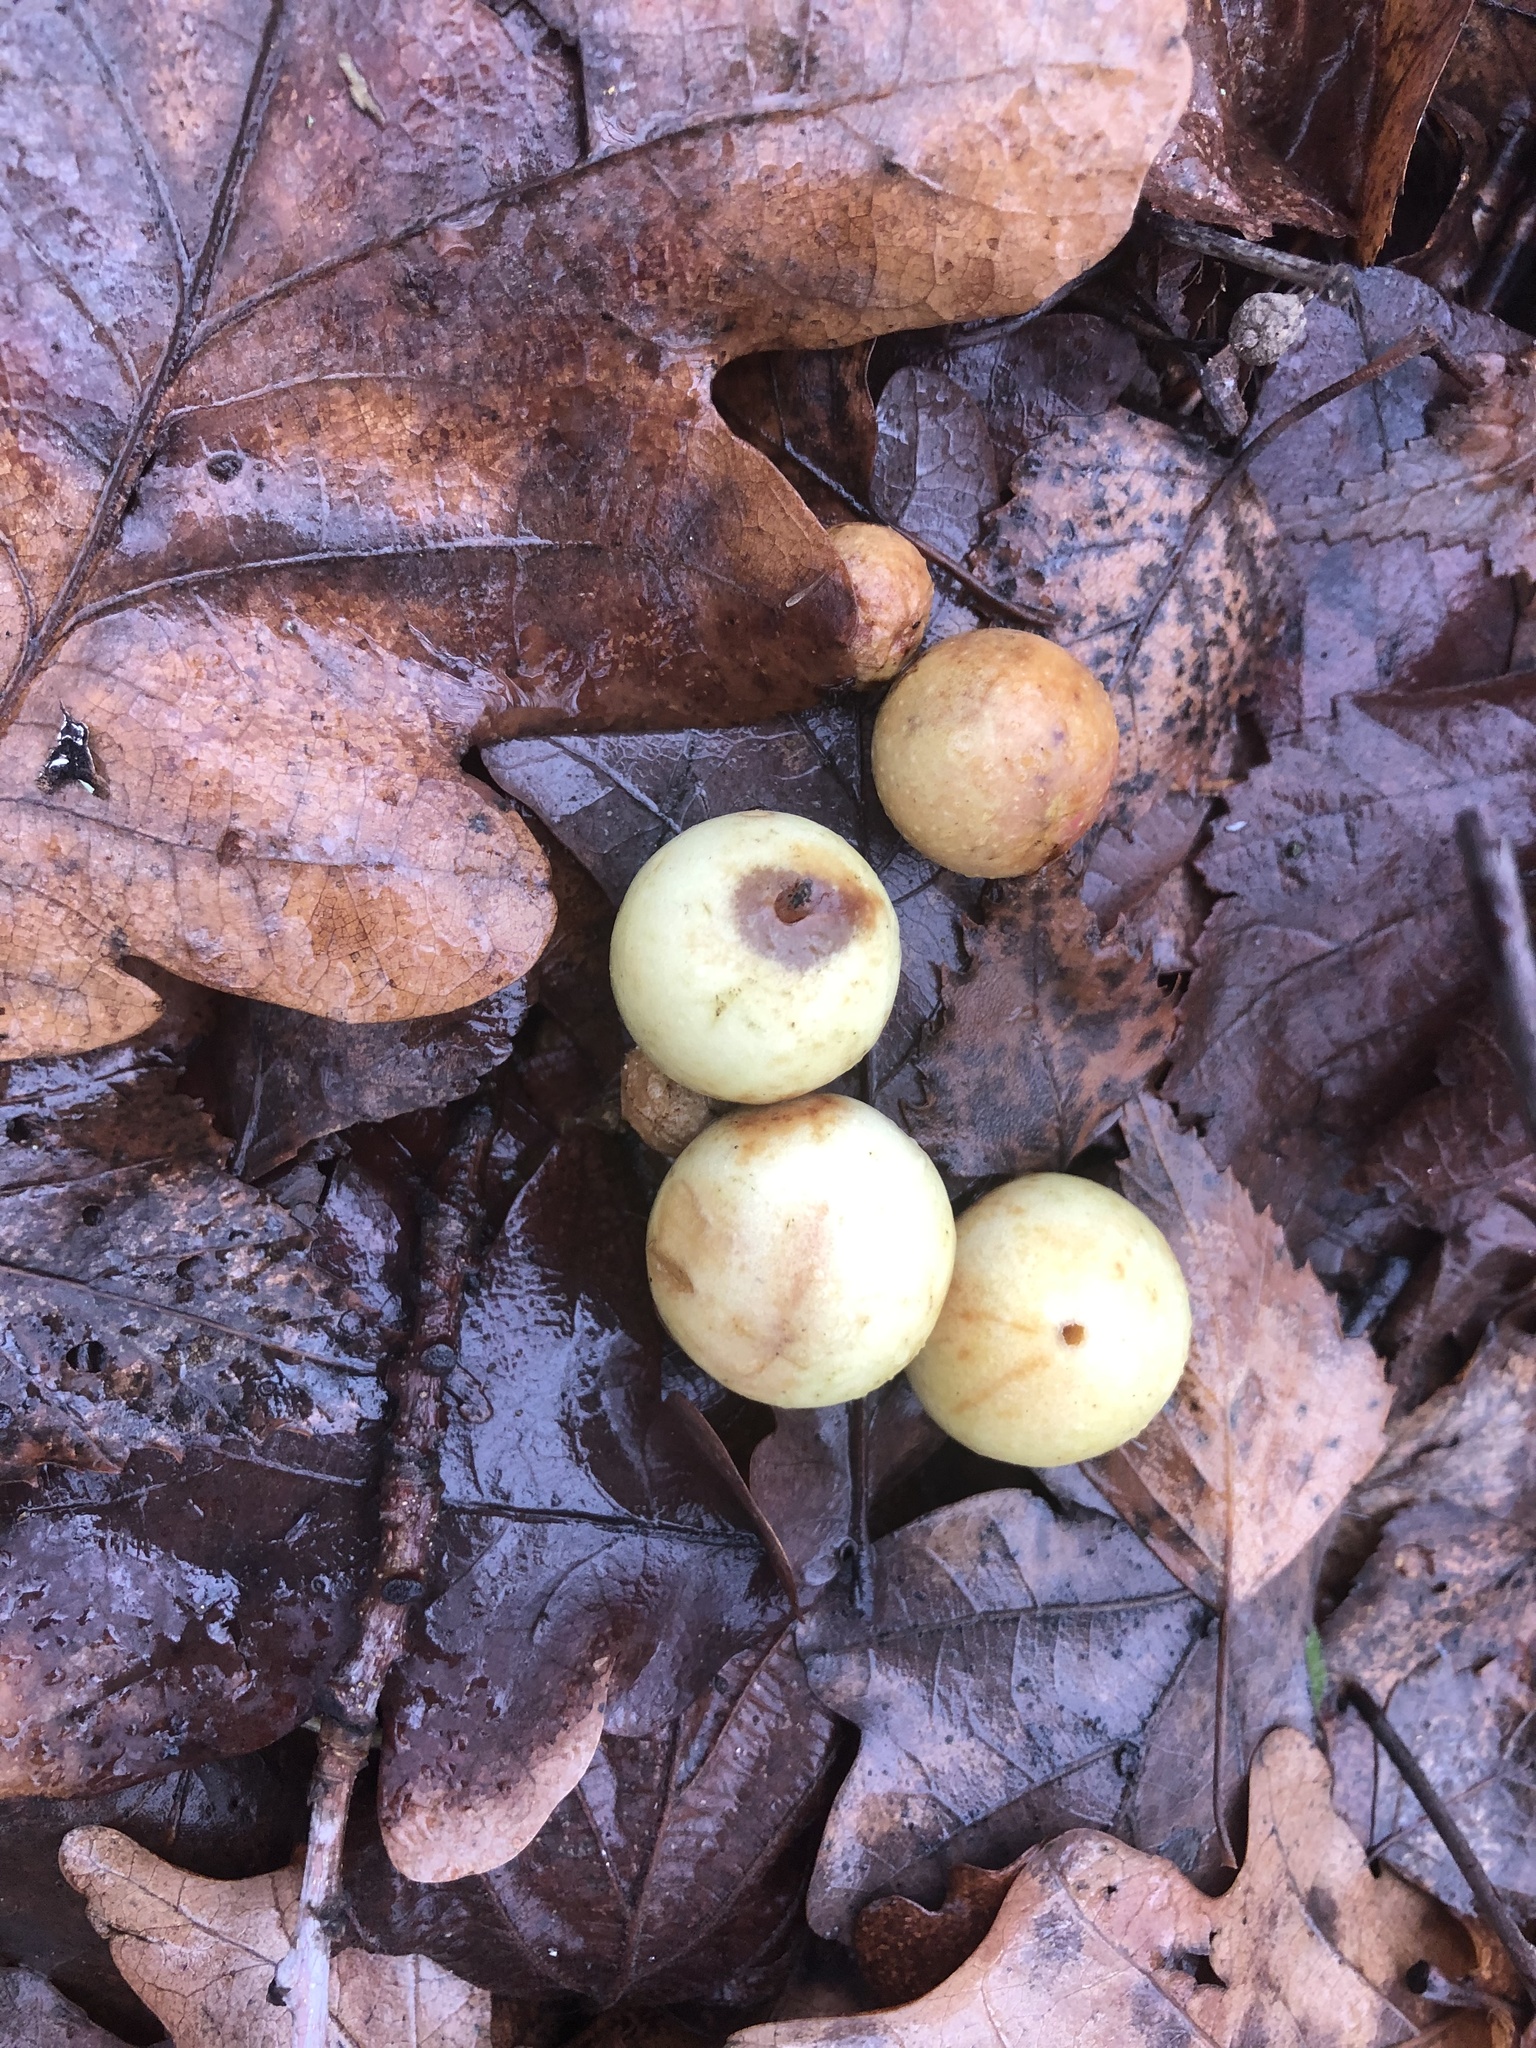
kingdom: Animalia
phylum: Arthropoda
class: Insecta
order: Hymenoptera
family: Cynipidae
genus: Cynips
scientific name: Cynips quercusfolii
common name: Cherry gall
